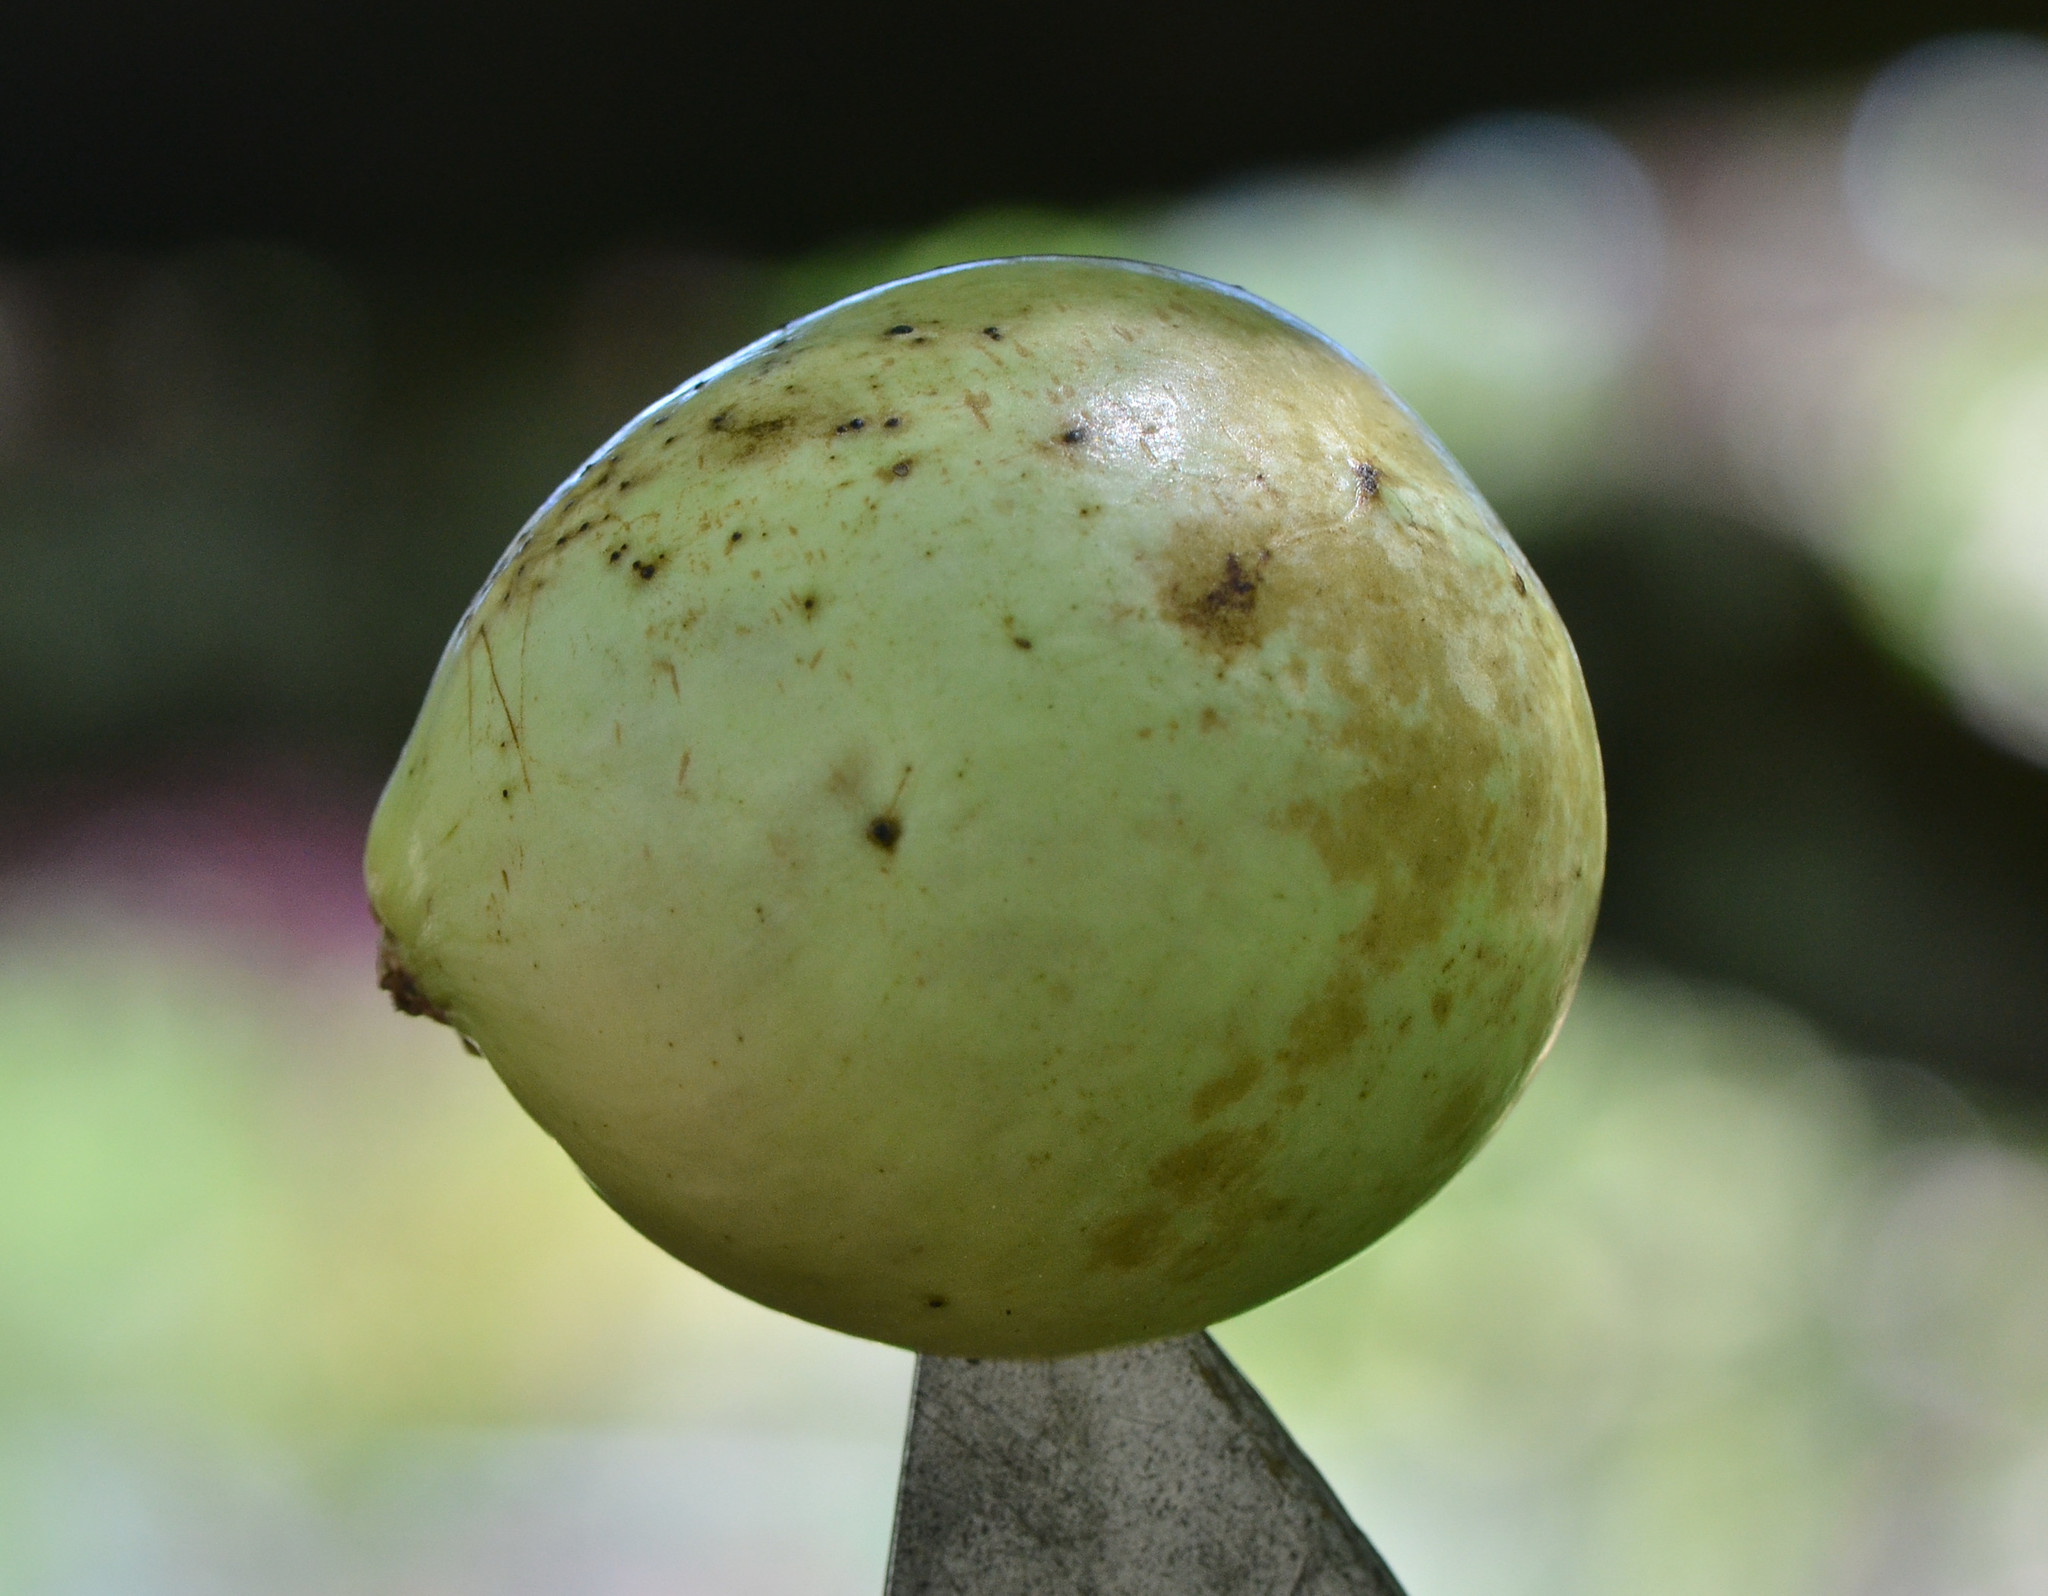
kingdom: Animalia
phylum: Arthropoda
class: Insecta
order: Hymenoptera
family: Cynipidae
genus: Andricus
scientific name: Andricus quercuscalifornicus
